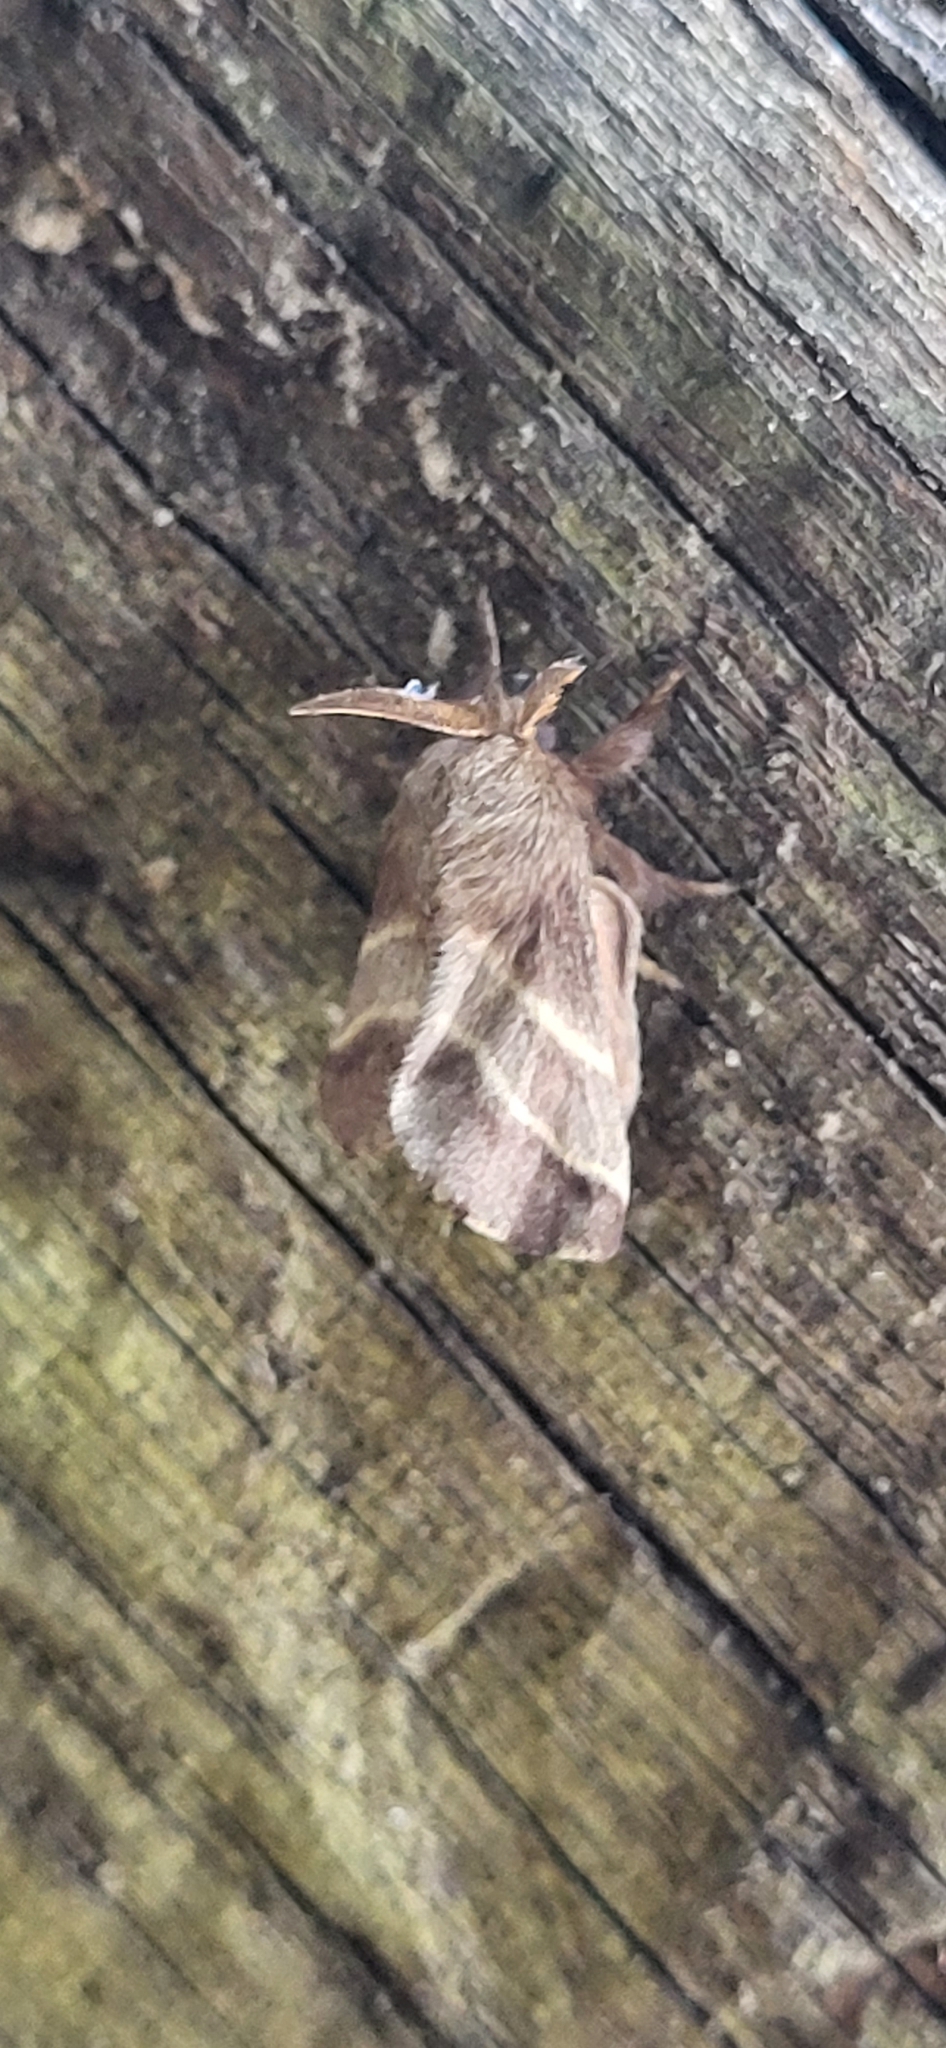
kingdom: Animalia
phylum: Arthropoda
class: Insecta
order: Lepidoptera
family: Lasiocampidae
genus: Malacosoma
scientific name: Malacosoma americana
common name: Eastern tent caterpillar moth
